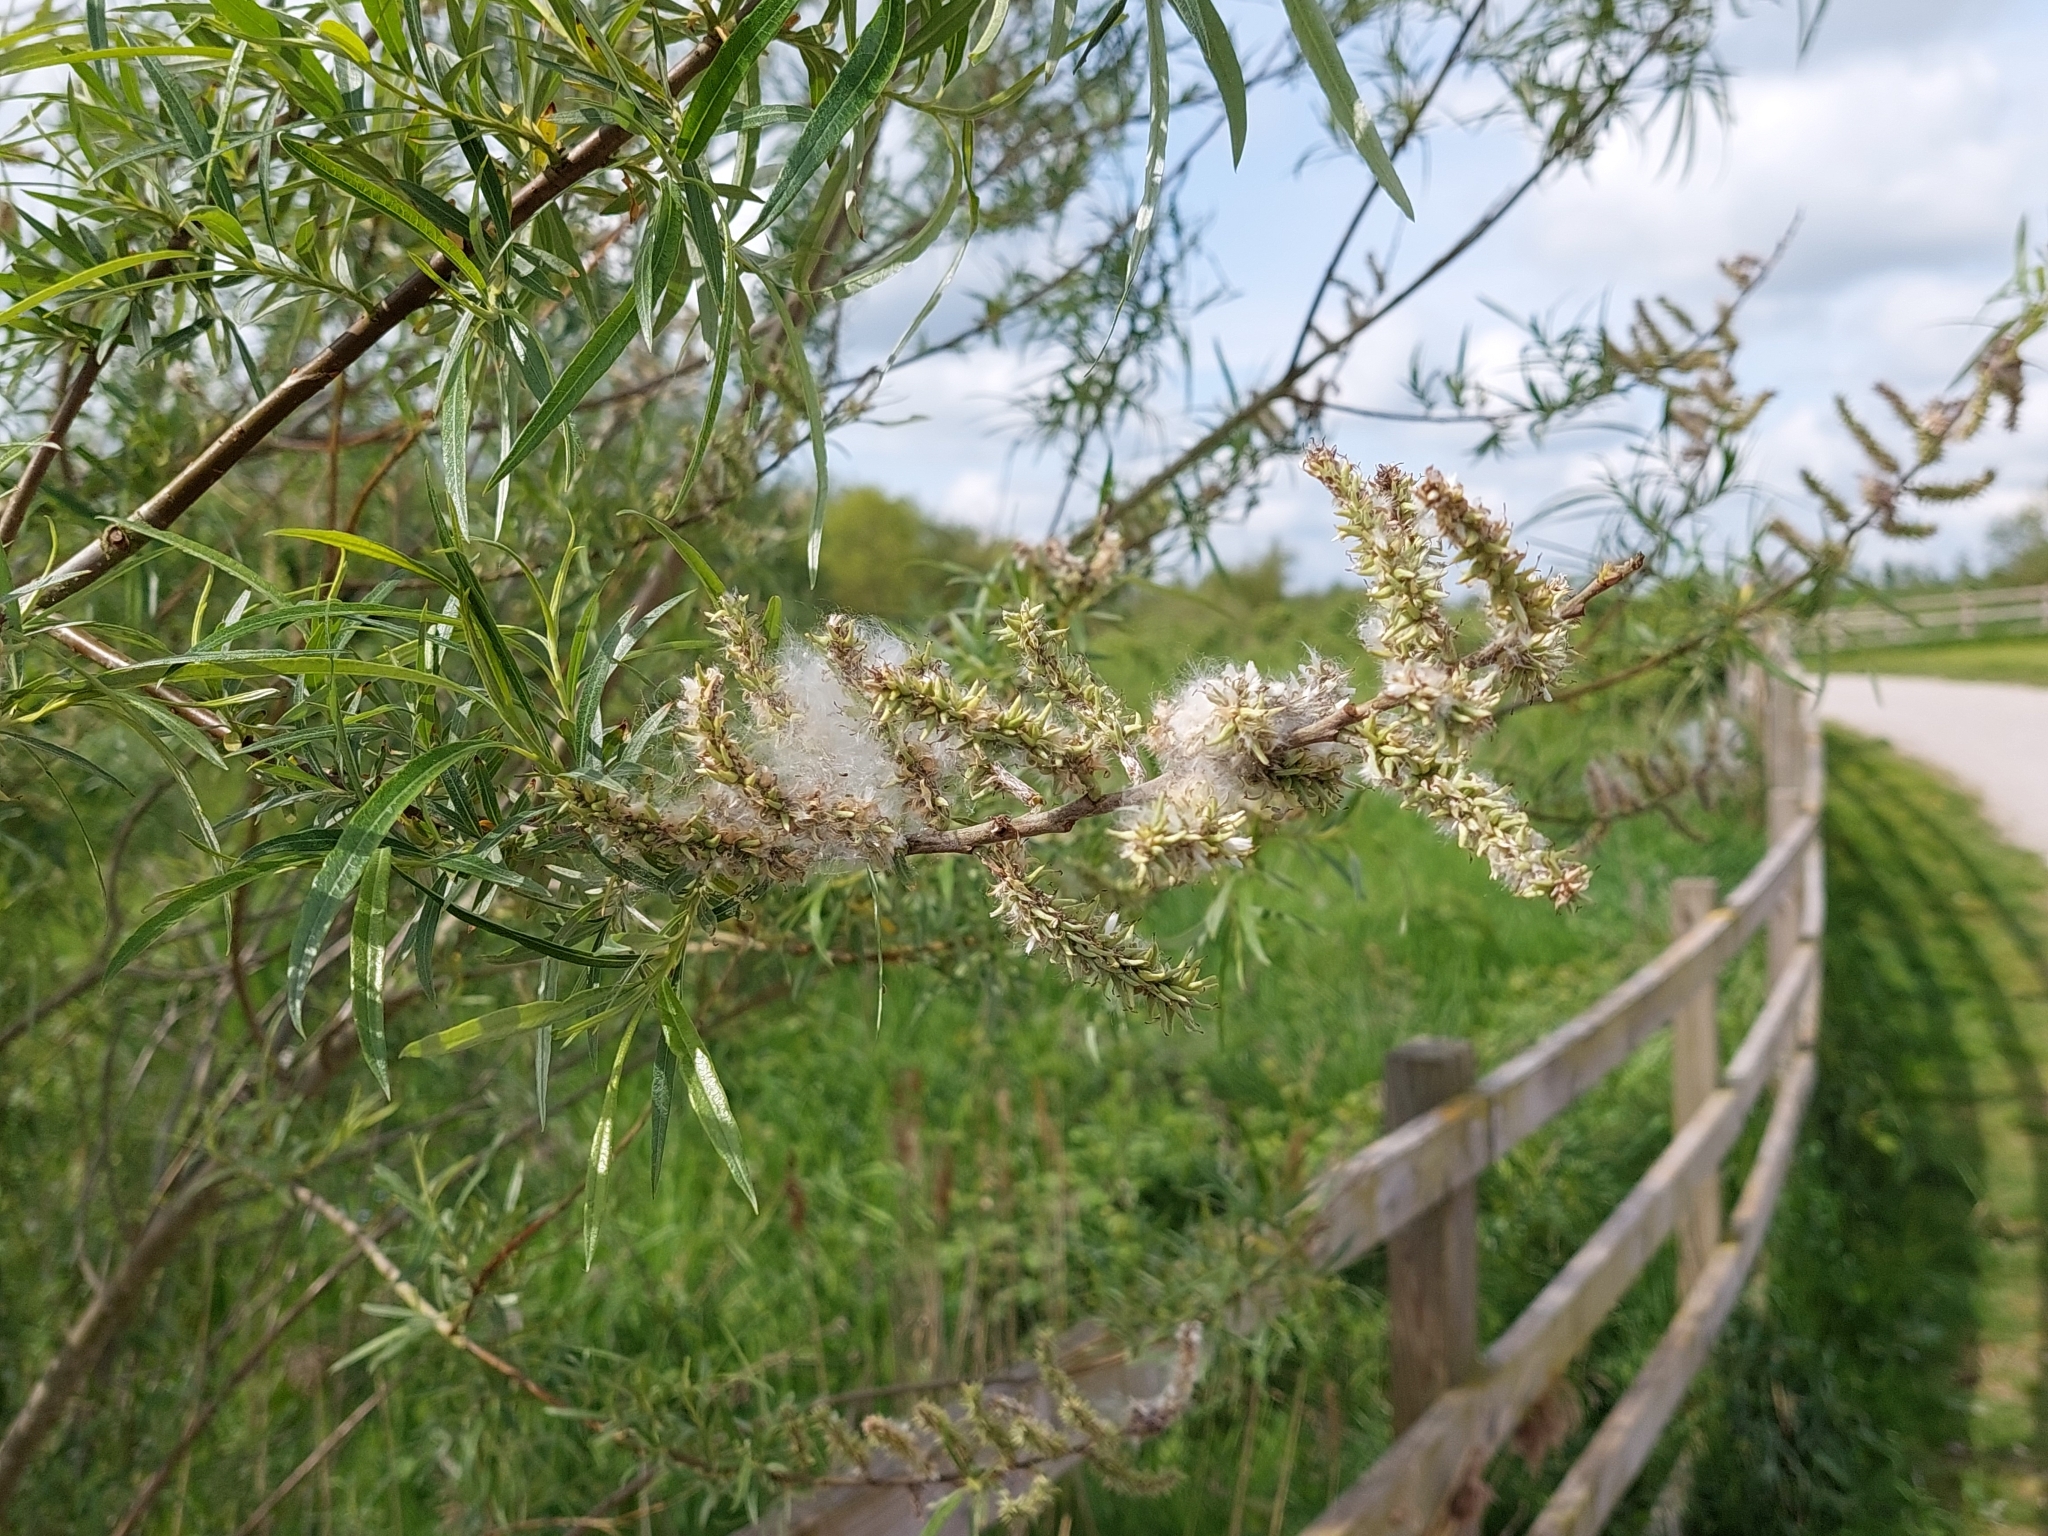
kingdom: Plantae
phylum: Tracheophyta
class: Magnoliopsida
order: Malpighiales
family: Salicaceae
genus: Salix
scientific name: Salix viminalis
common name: Osier
